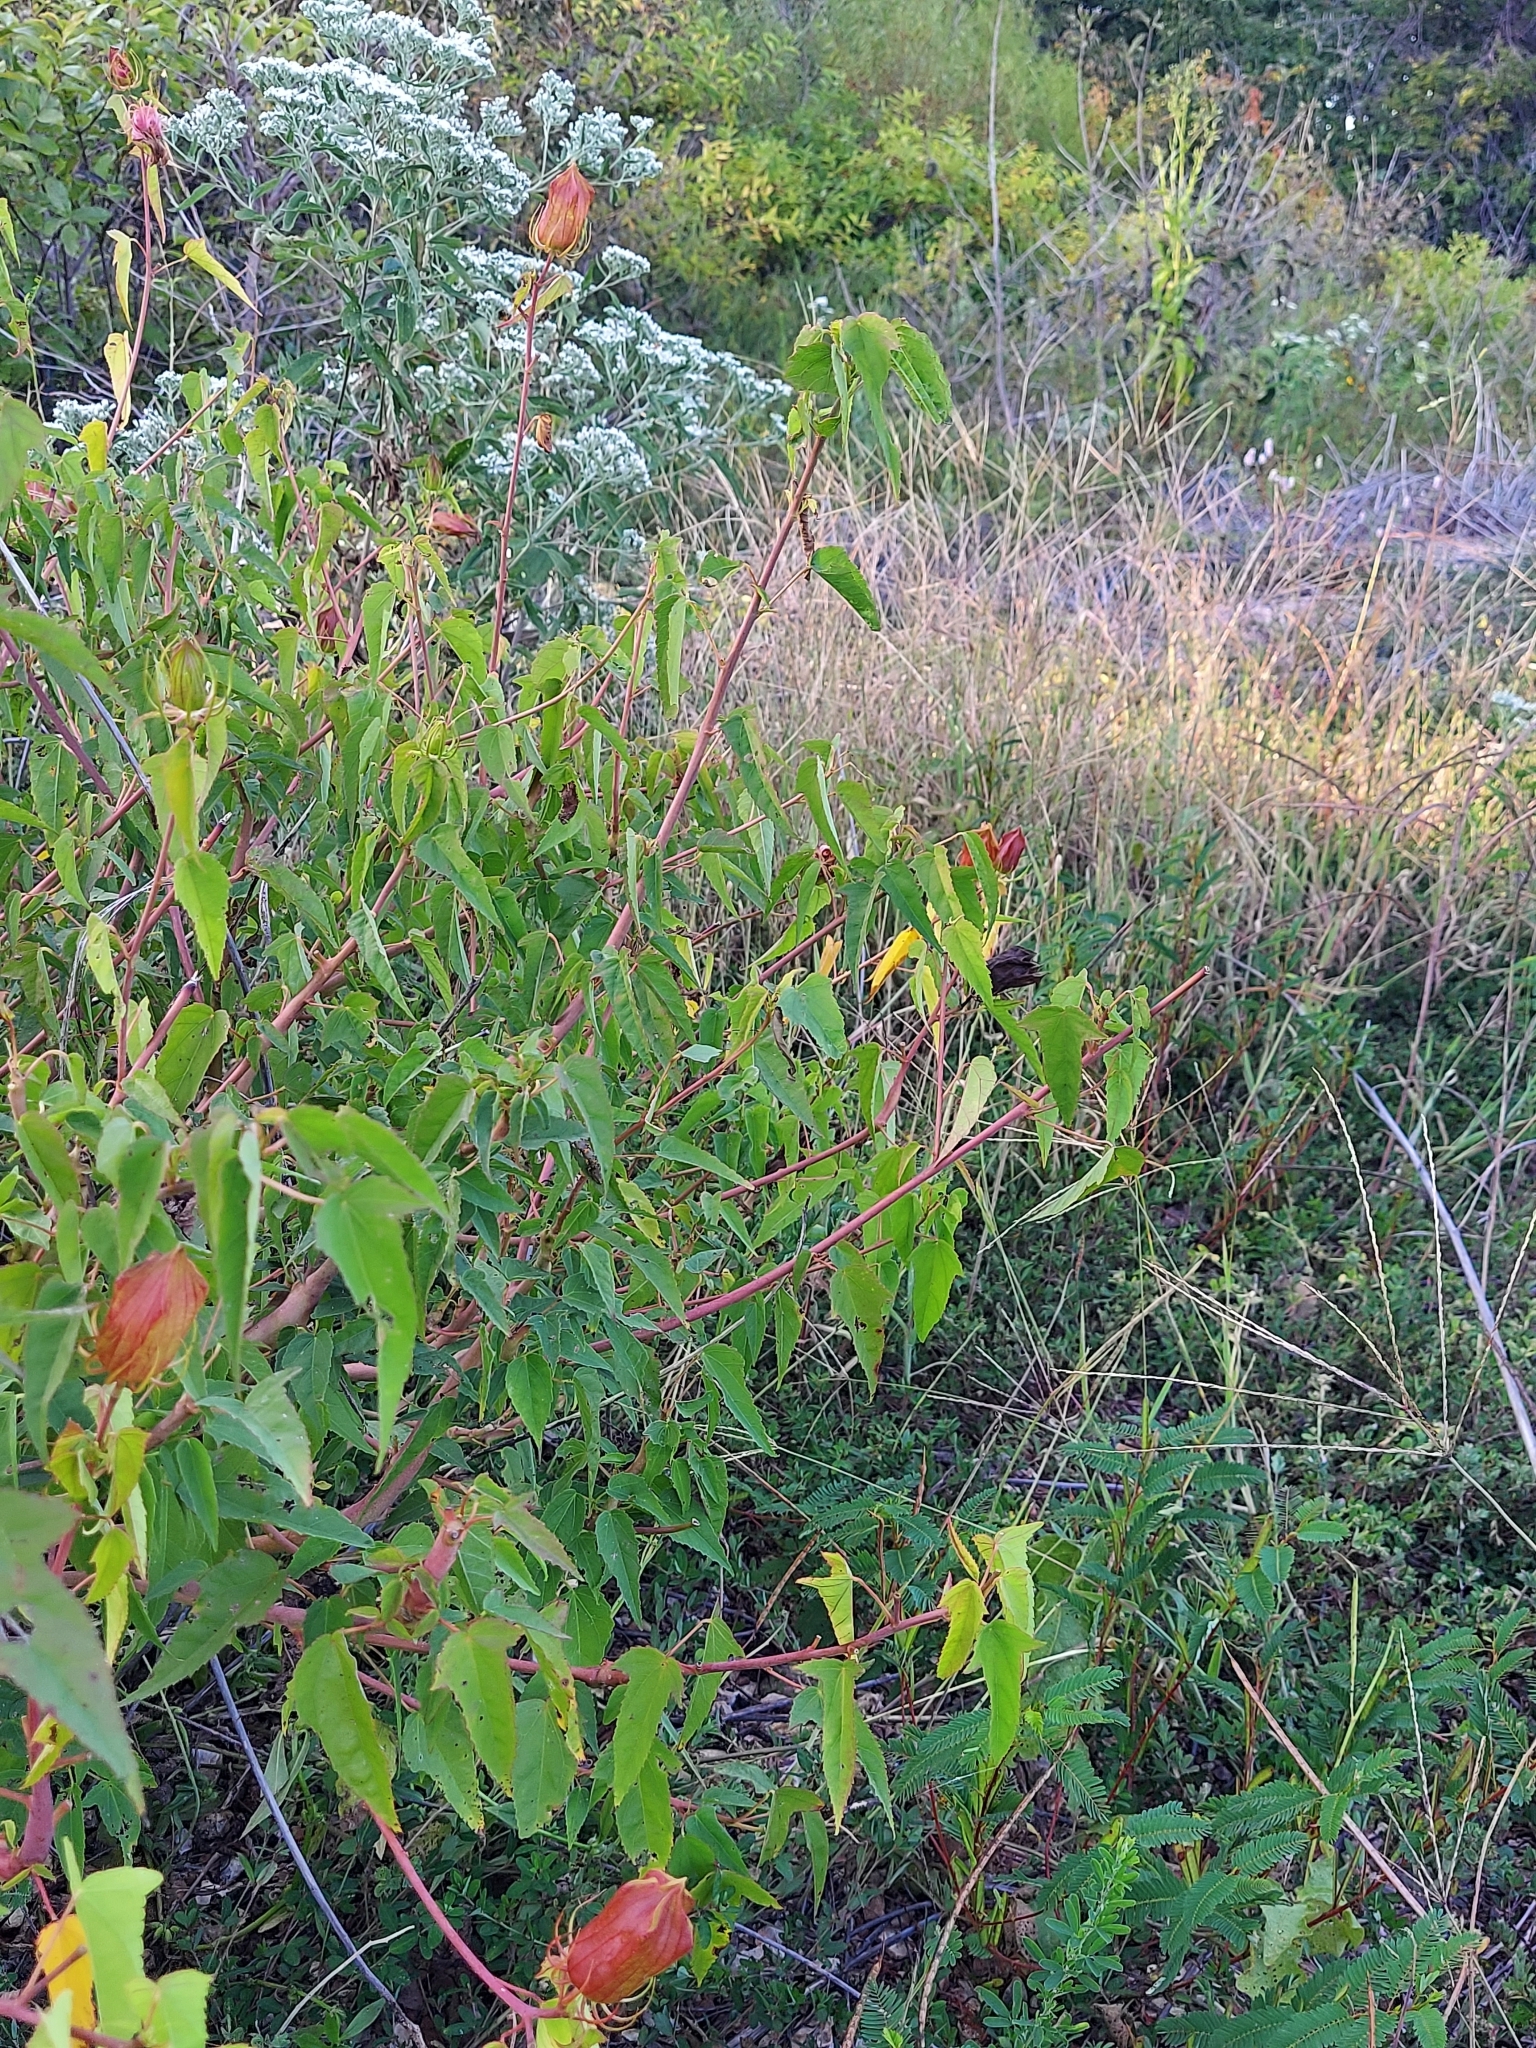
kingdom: Plantae
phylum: Tracheophyta
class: Magnoliopsida
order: Malvales
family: Malvaceae
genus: Hibiscus
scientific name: Hibiscus laevis
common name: Scarlet rose-mallow
